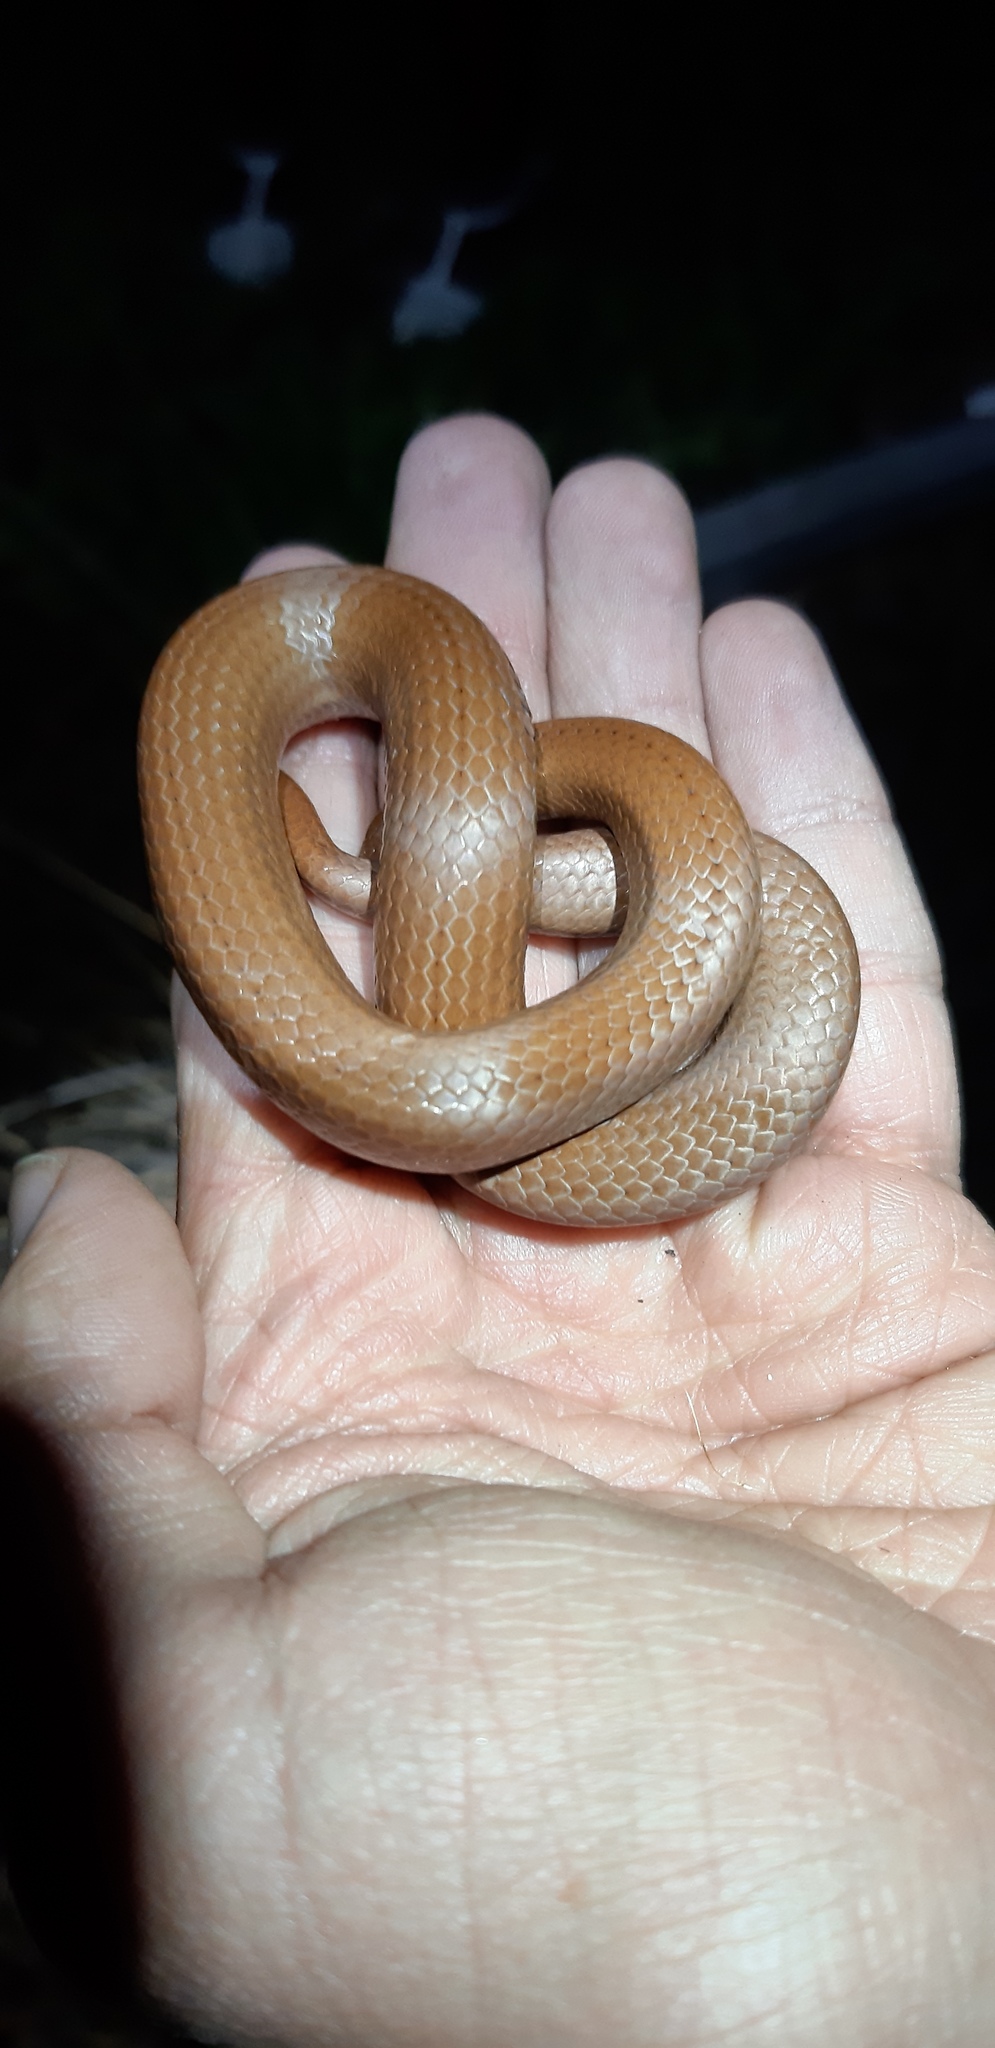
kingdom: Animalia
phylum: Chordata
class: Squamata
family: Pseudoxyrhophiidae
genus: Duberria
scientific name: Duberria lutrix
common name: Common slug eater
